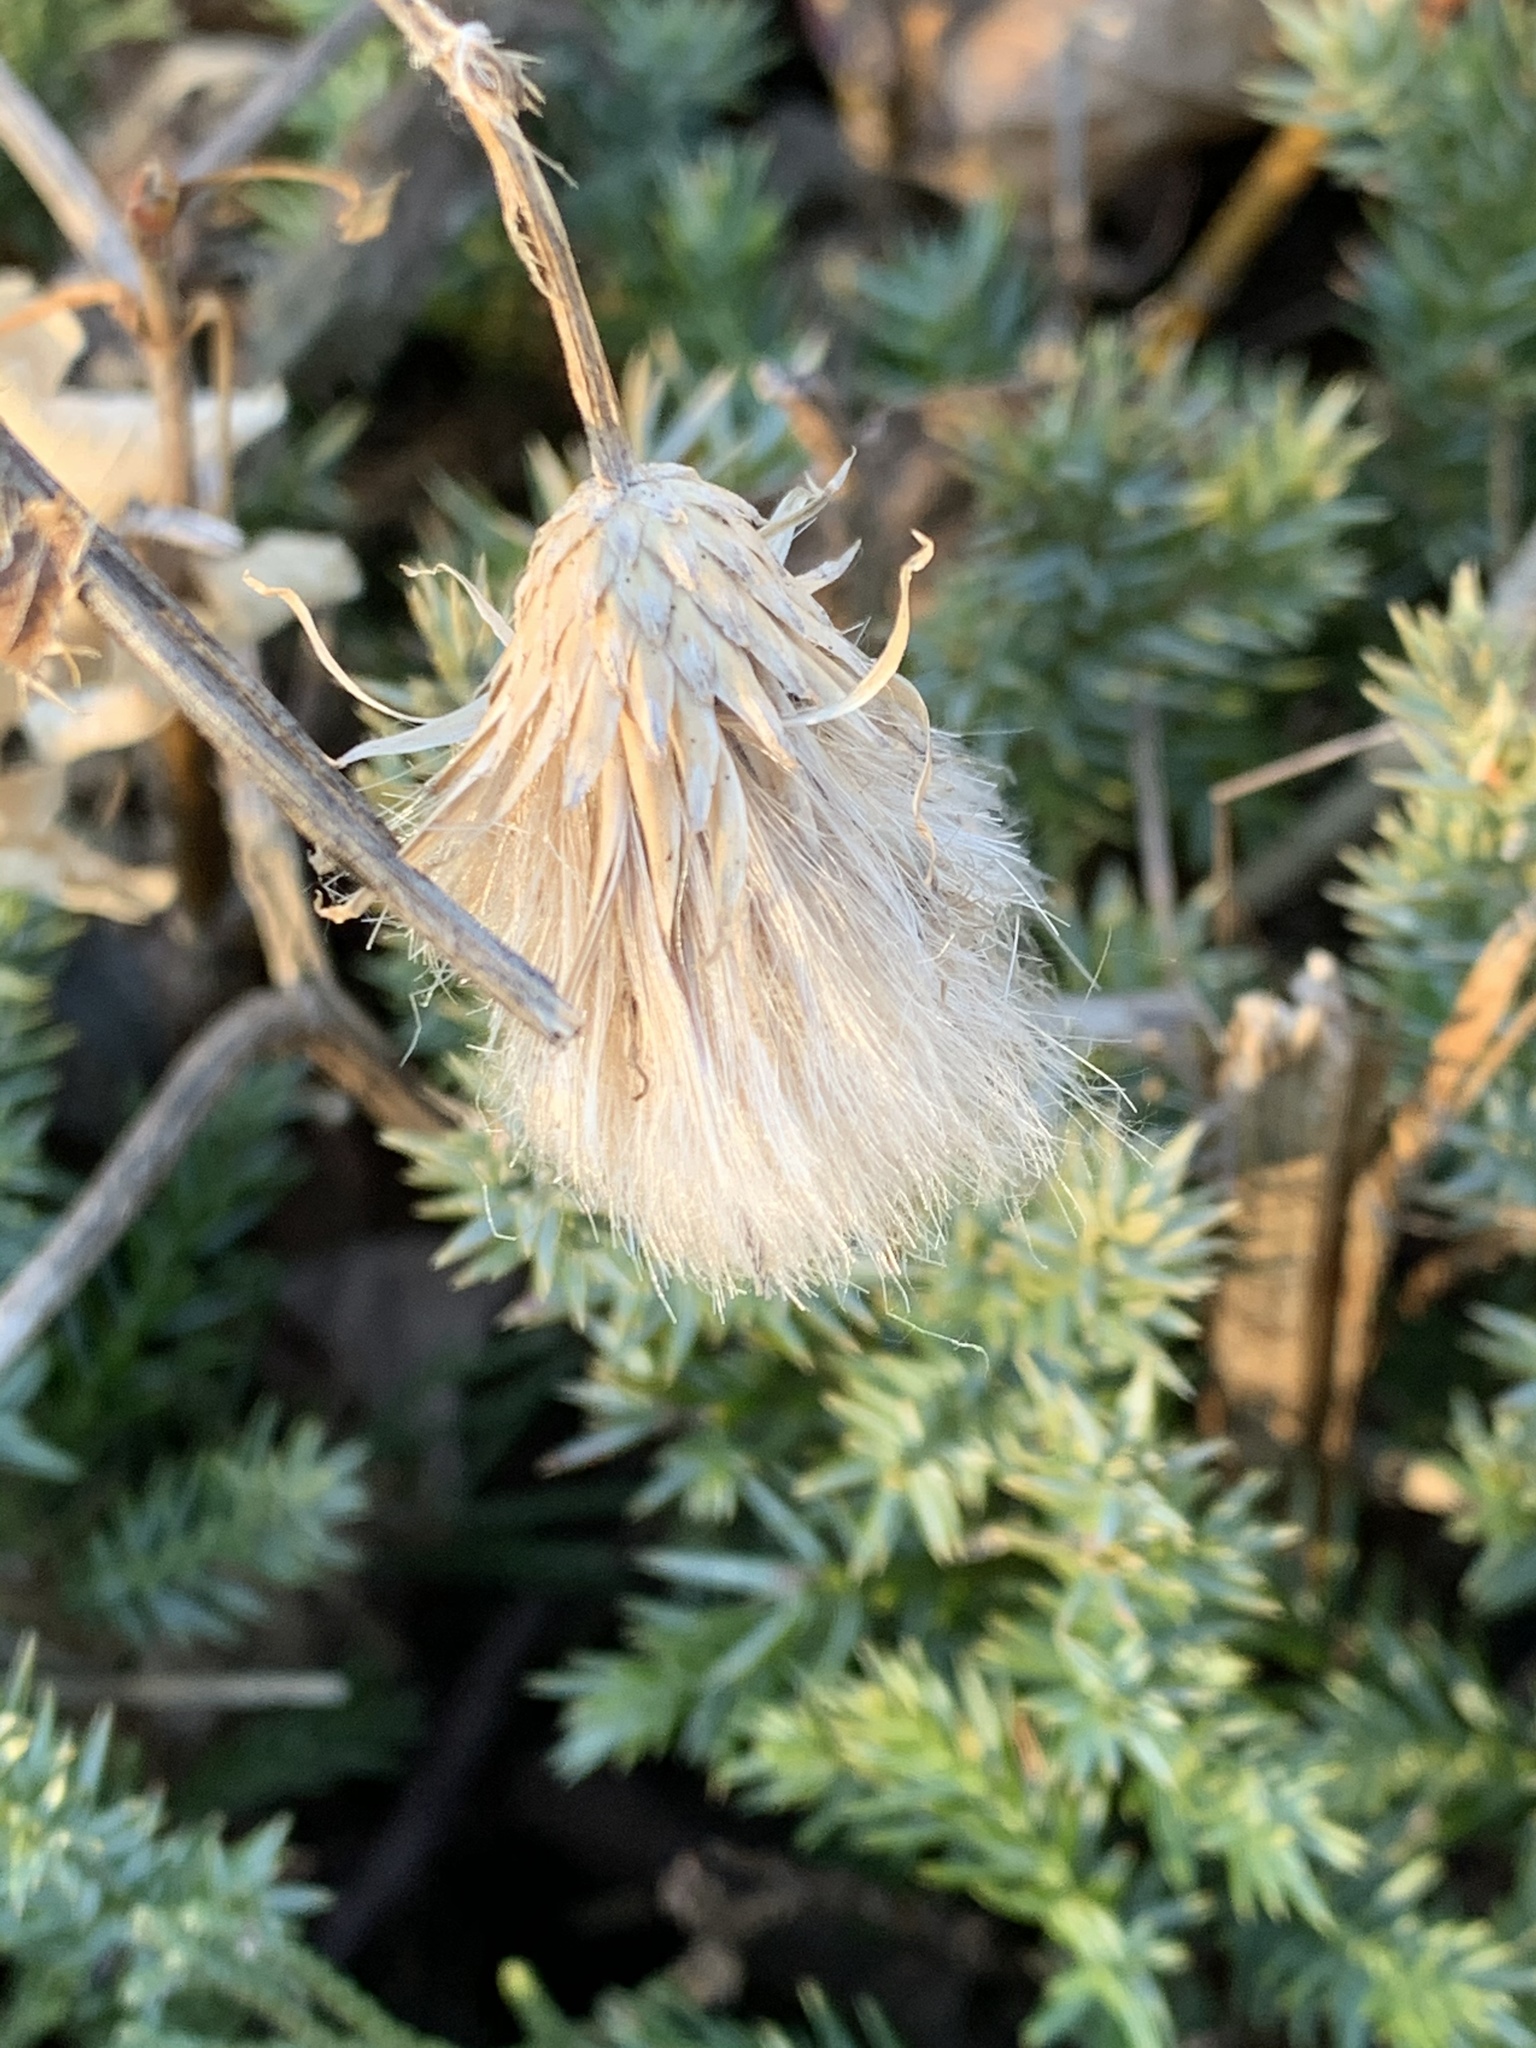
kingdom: Plantae
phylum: Tracheophyta
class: Magnoliopsida
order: Asterales
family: Asteraceae
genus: Cirsium
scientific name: Cirsium arvense
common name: Creeping thistle
